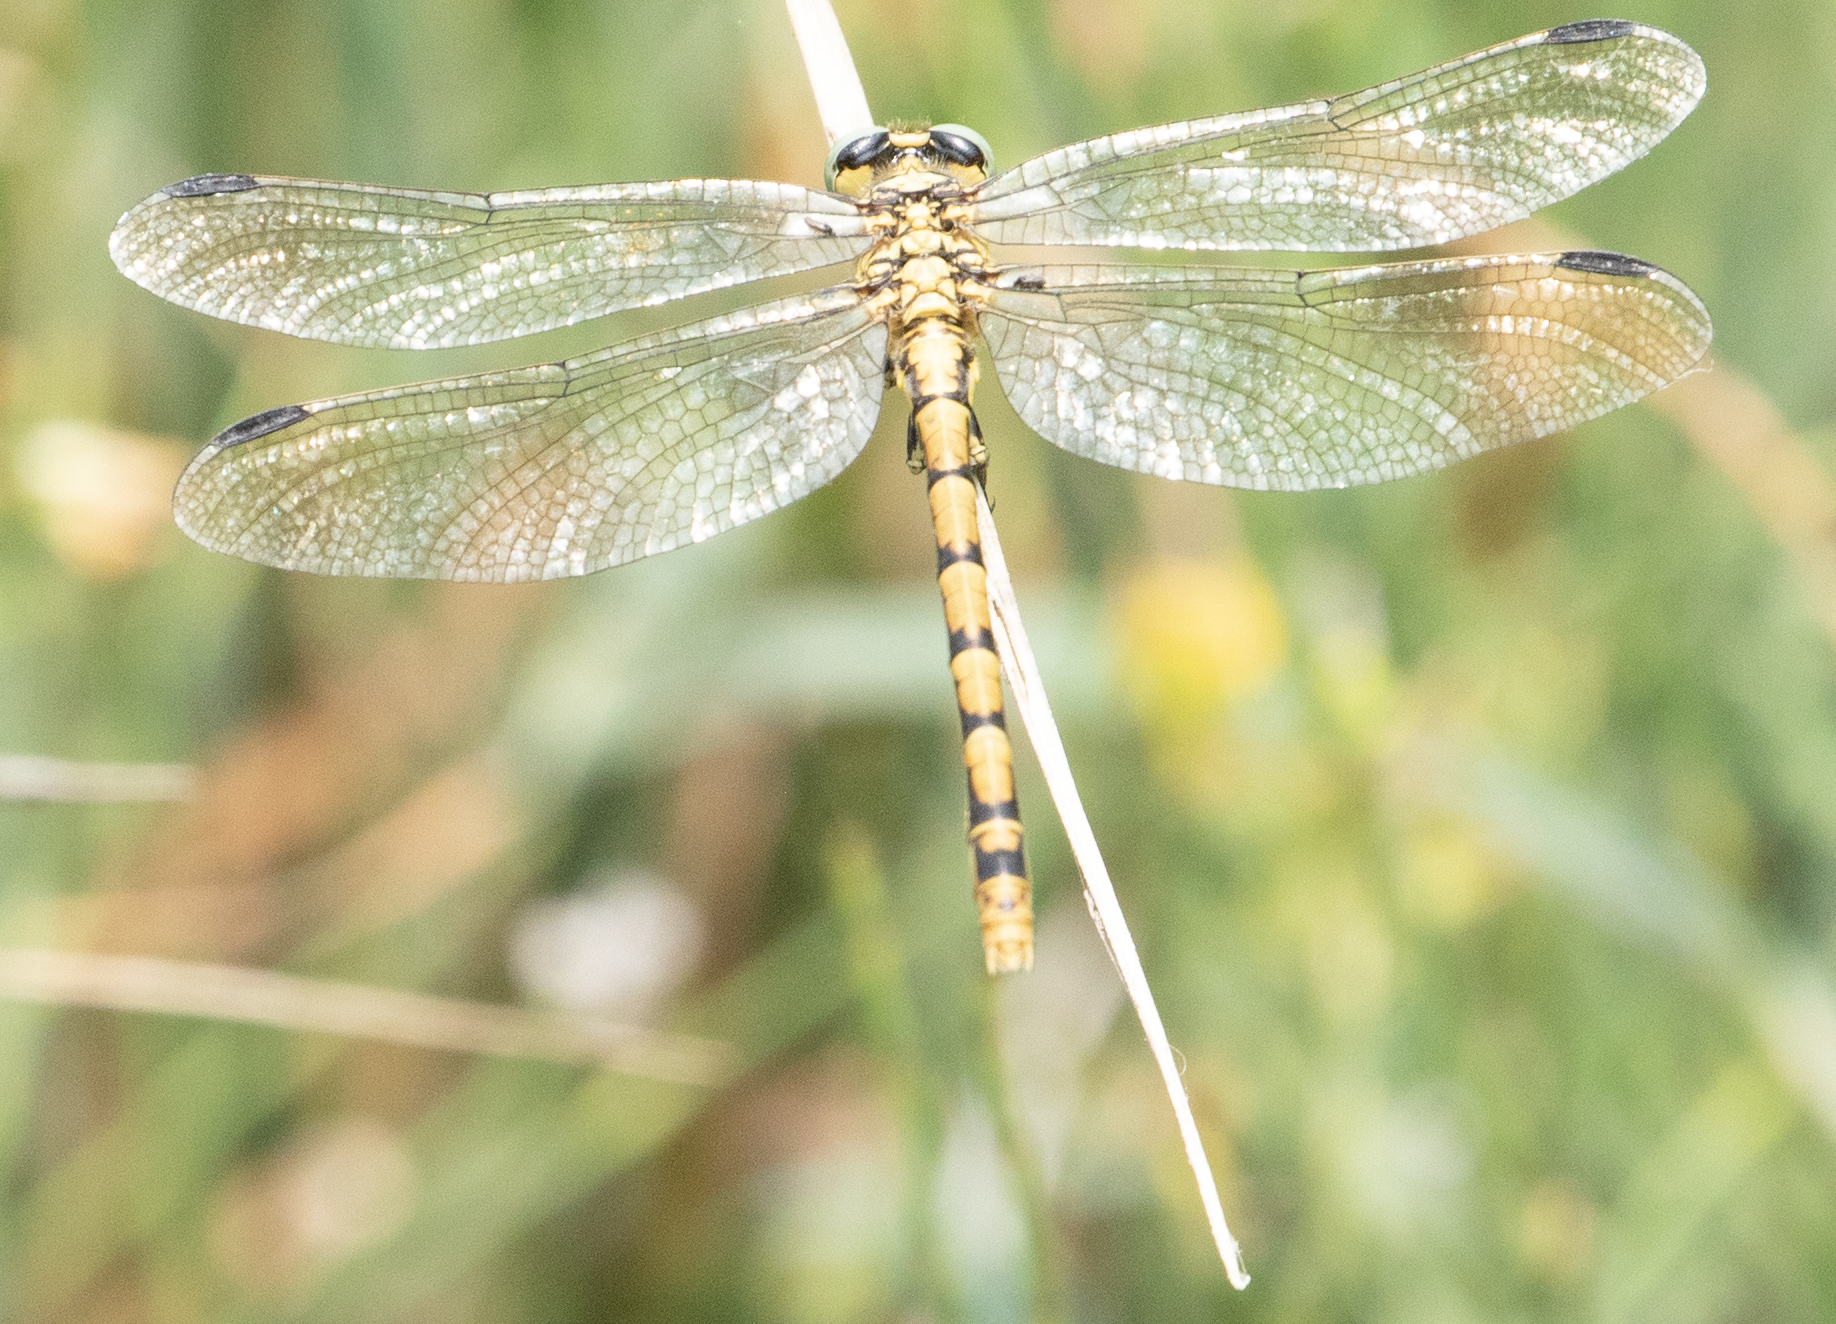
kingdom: Animalia
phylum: Arthropoda
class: Insecta
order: Odonata
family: Gomphidae
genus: Onychogomphus
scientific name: Onychogomphus forcipatus
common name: Small pincertail
